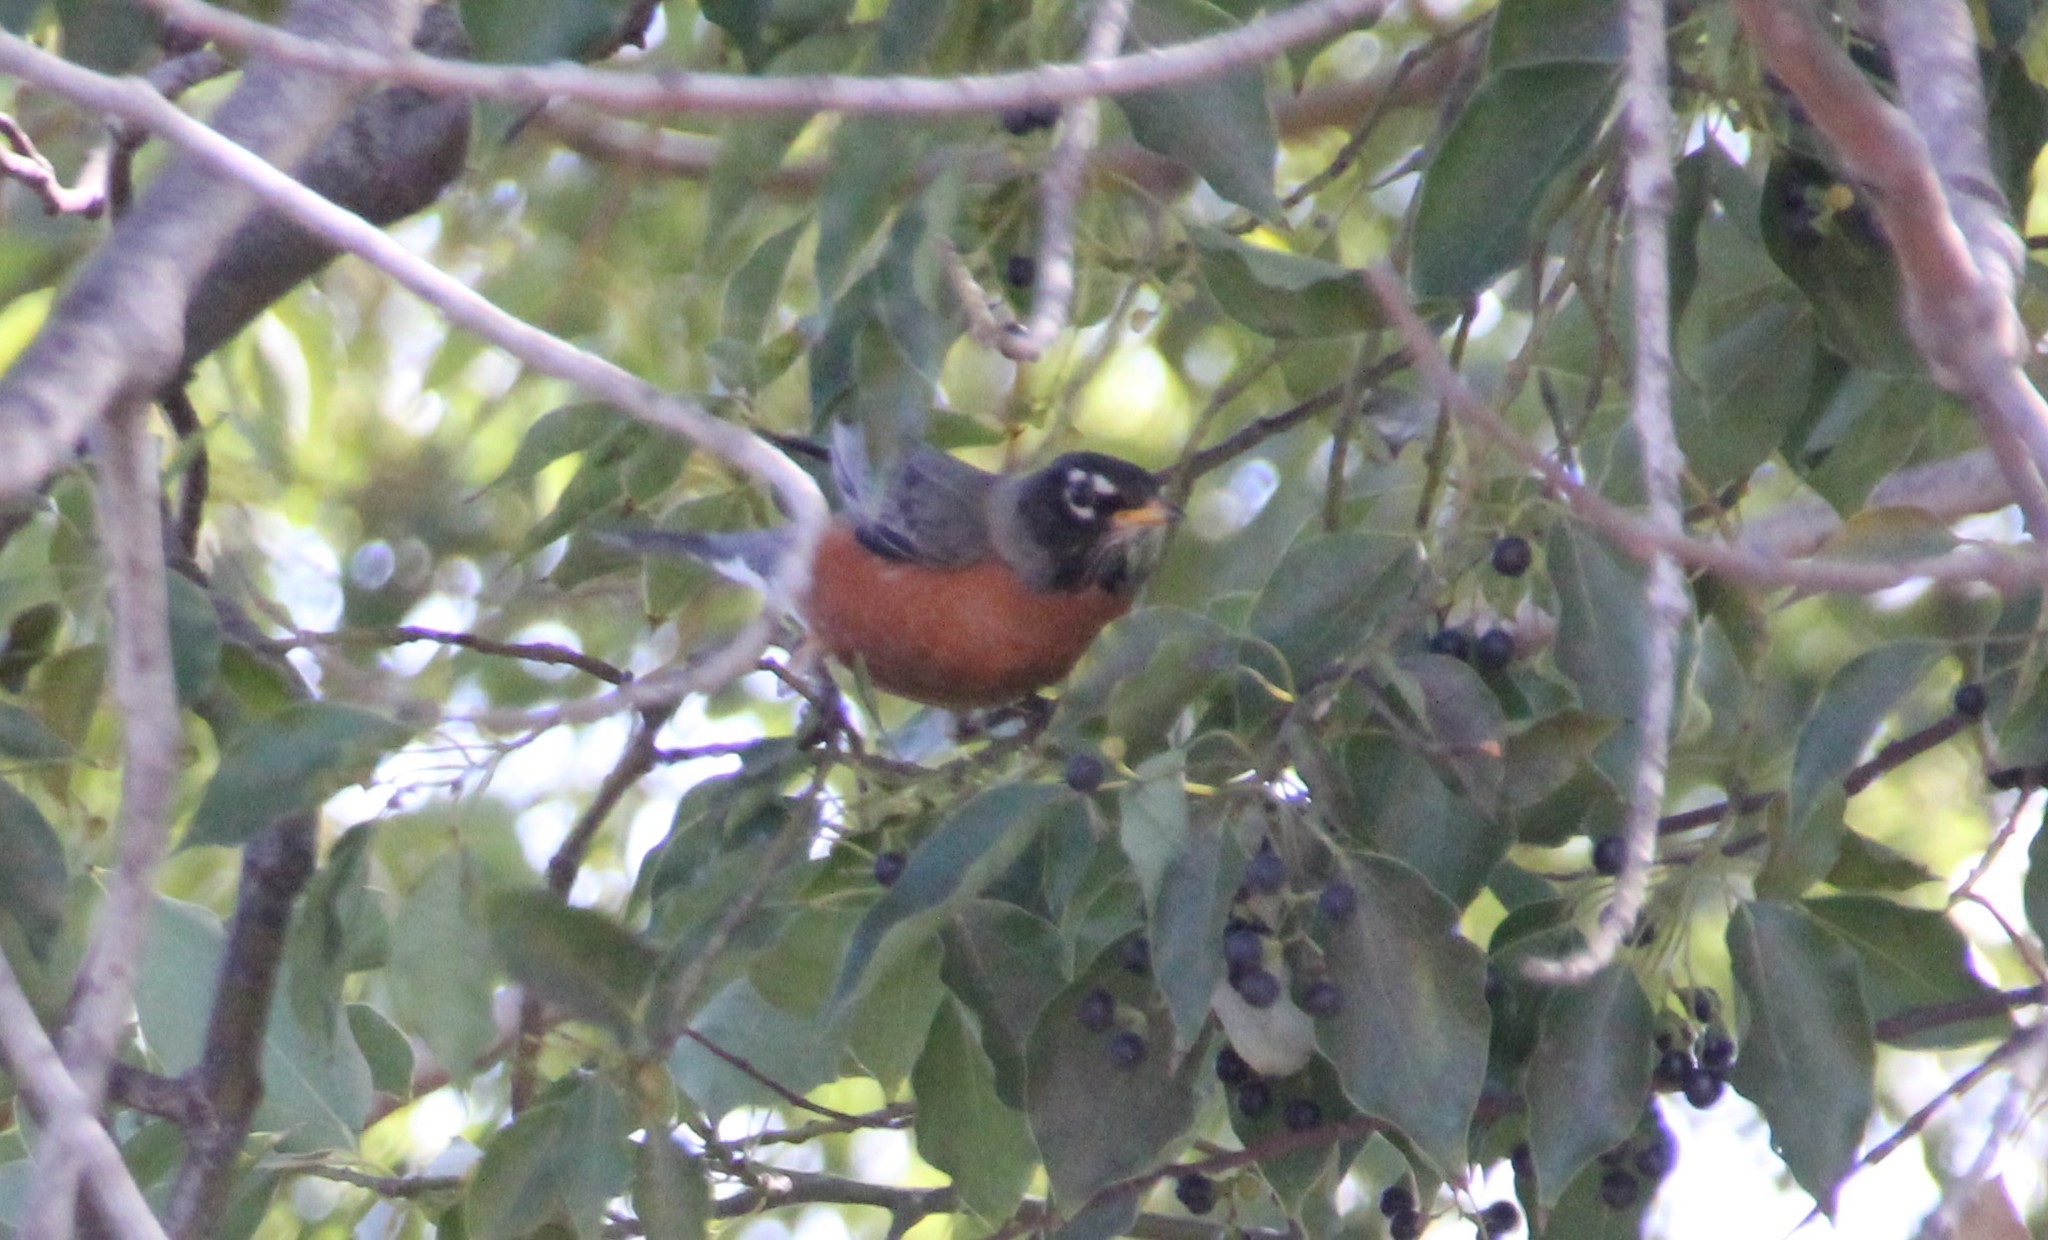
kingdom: Animalia
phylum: Chordata
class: Aves
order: Passeriformes
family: Turdidae
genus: Turdus
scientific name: Turdus migratorius
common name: American robin
